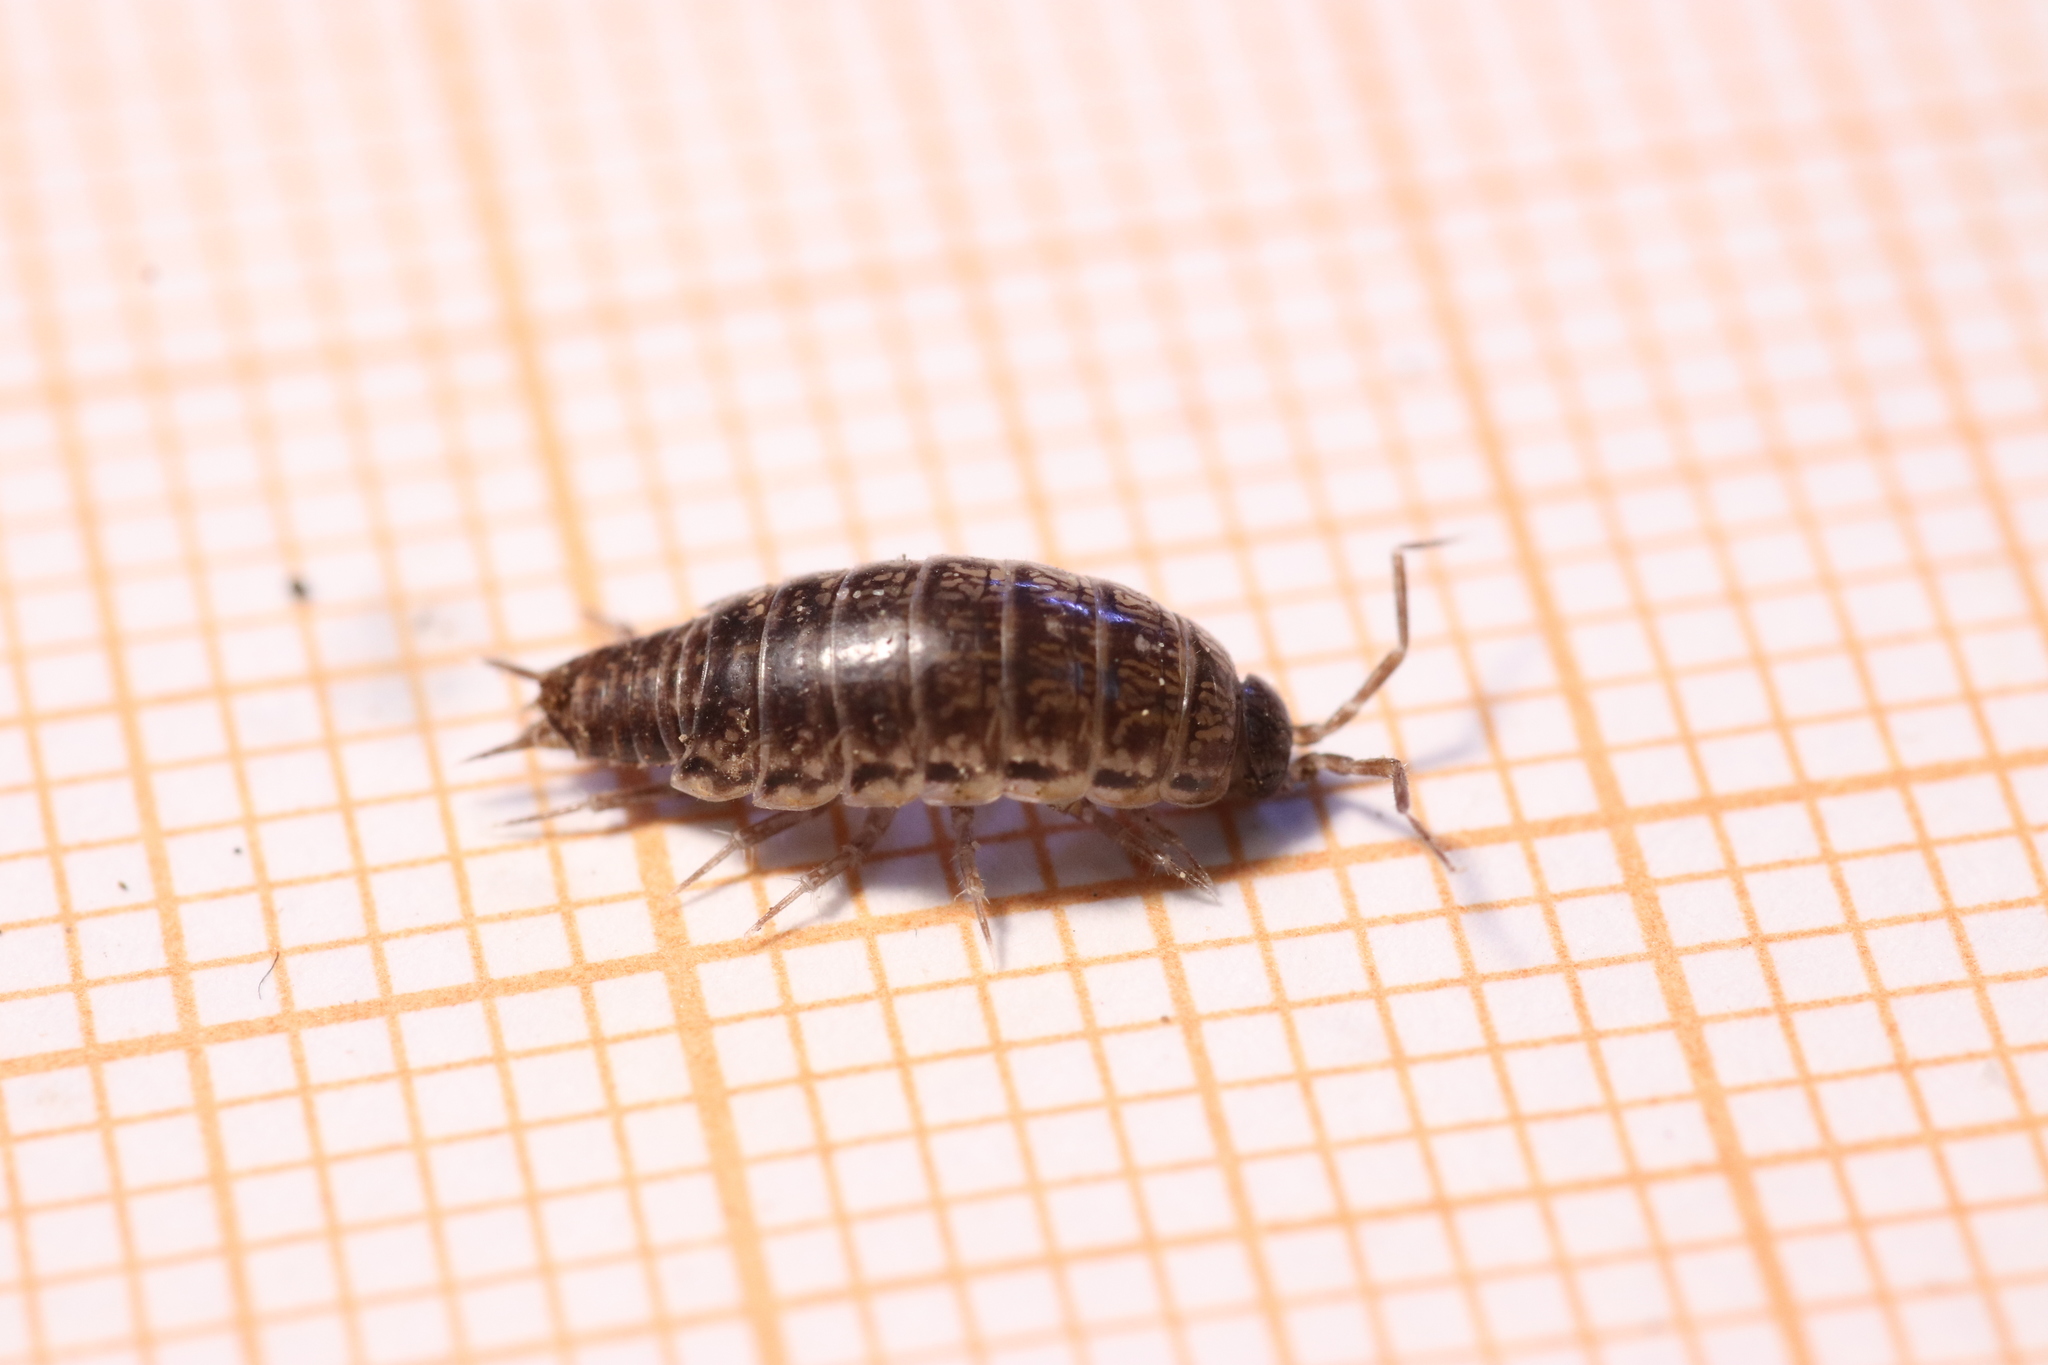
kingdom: Animalia
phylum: Arthropoda
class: Malacostraca
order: Isopoda
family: Philosciidae
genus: Chaetophiloscia
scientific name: Chaetophiloscia elongata
